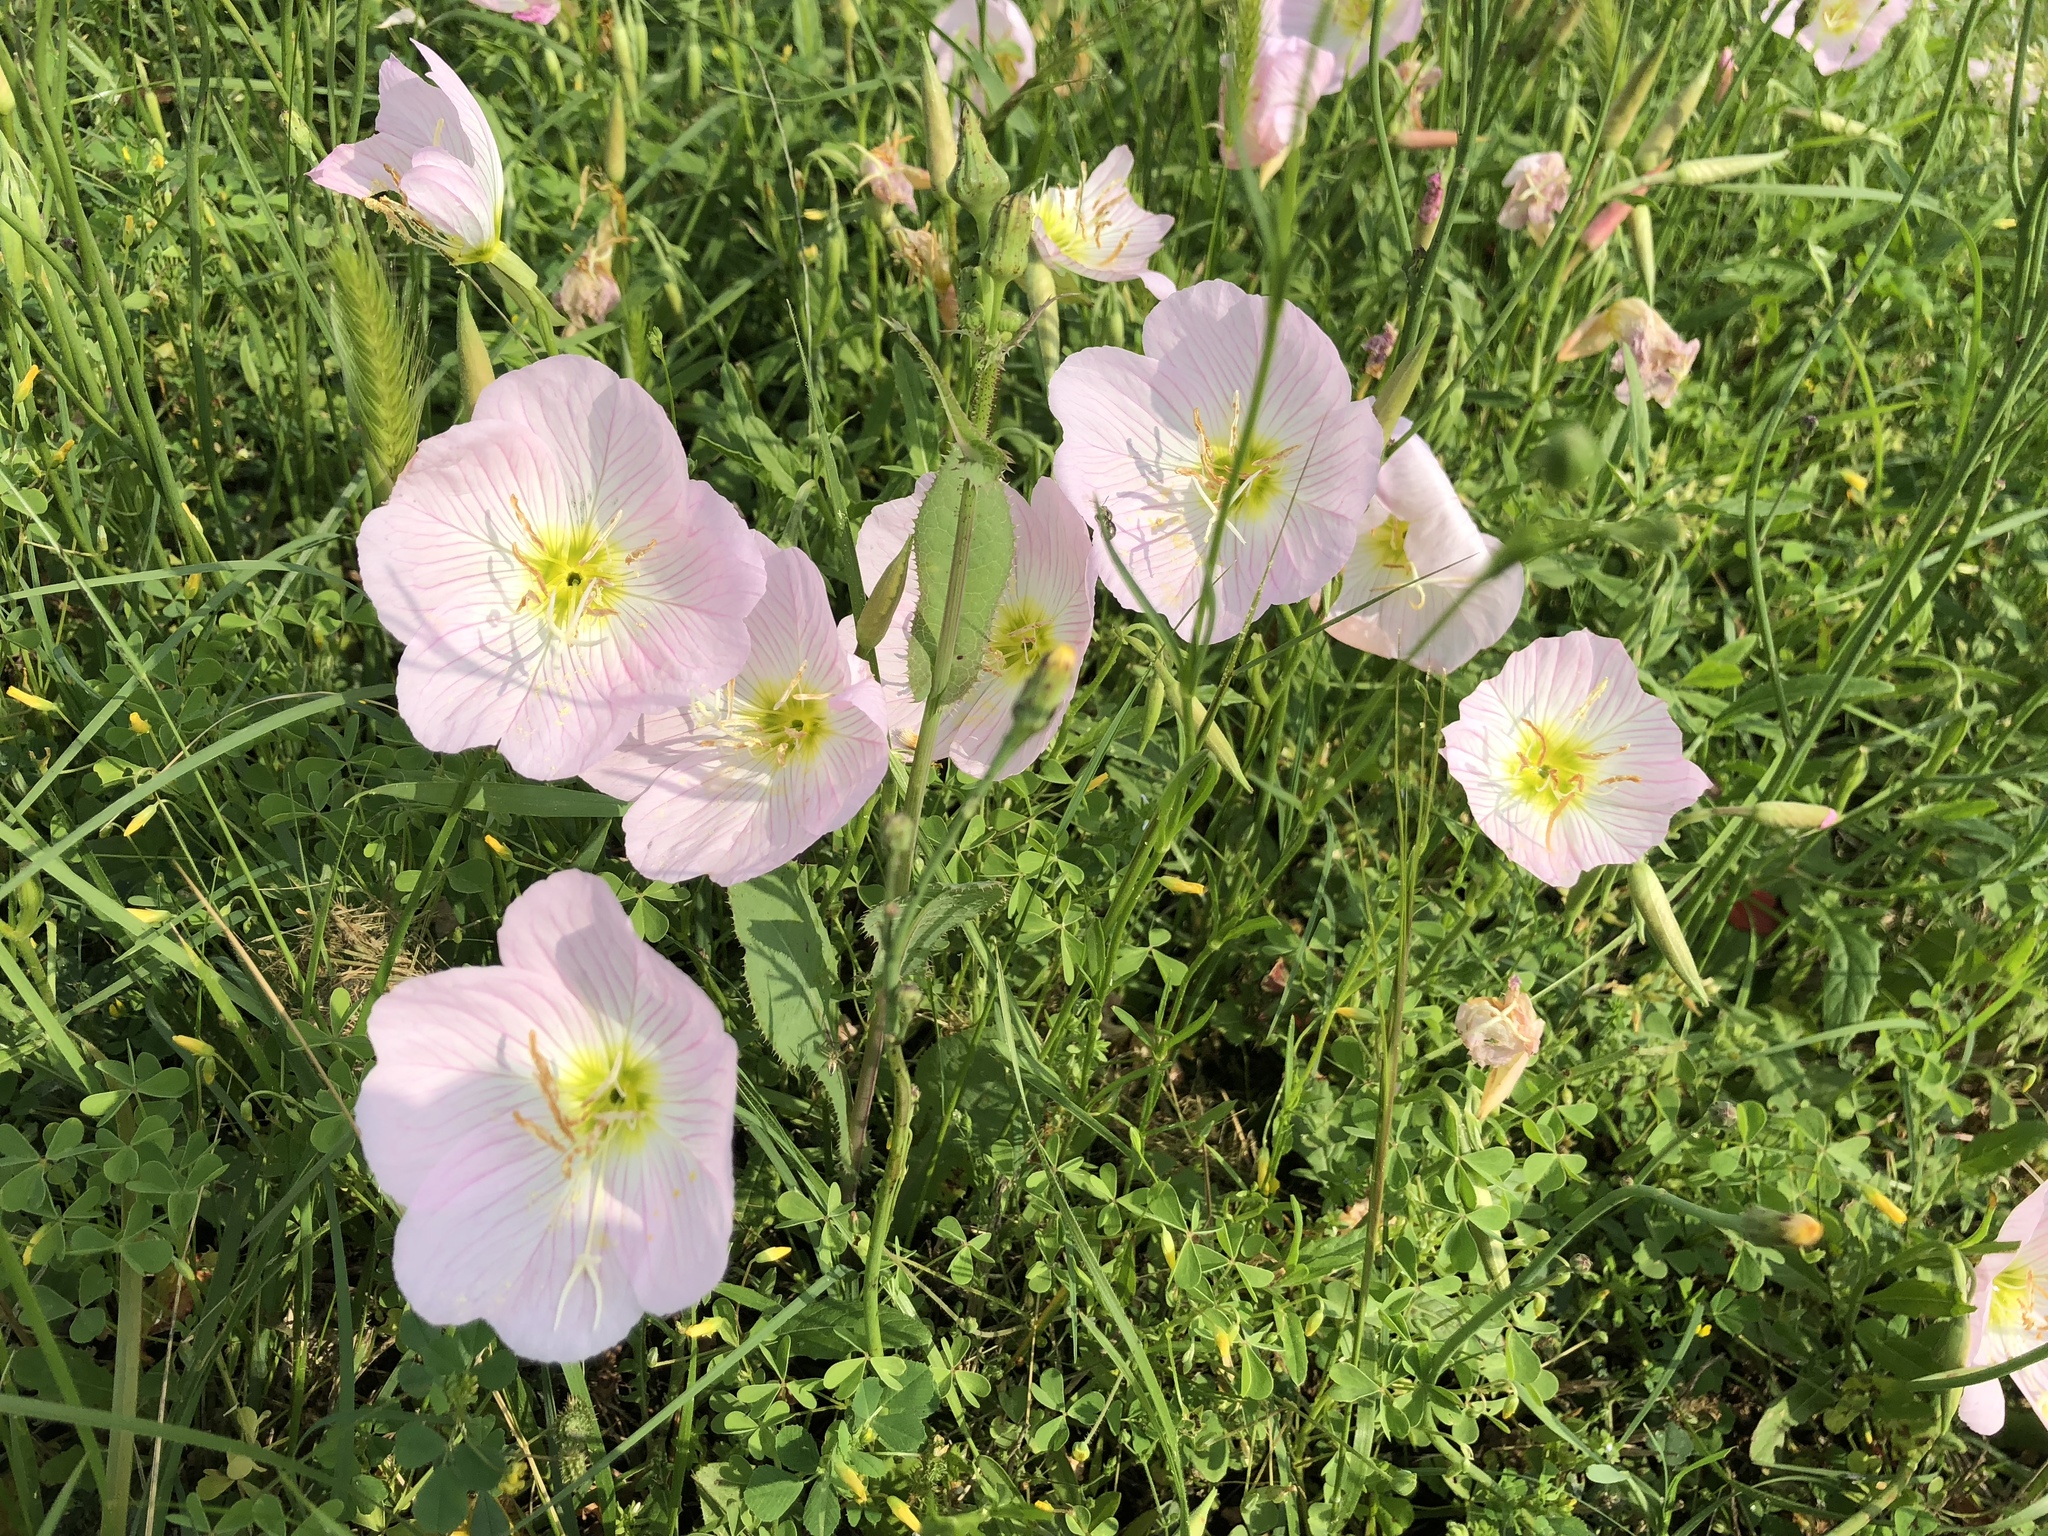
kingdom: Plantae
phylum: Tracheophyta
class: Magnoliopsida
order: Myrtales
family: Onagraceae
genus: Oenothera
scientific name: Oenothera speciosa
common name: White evening-primrose
